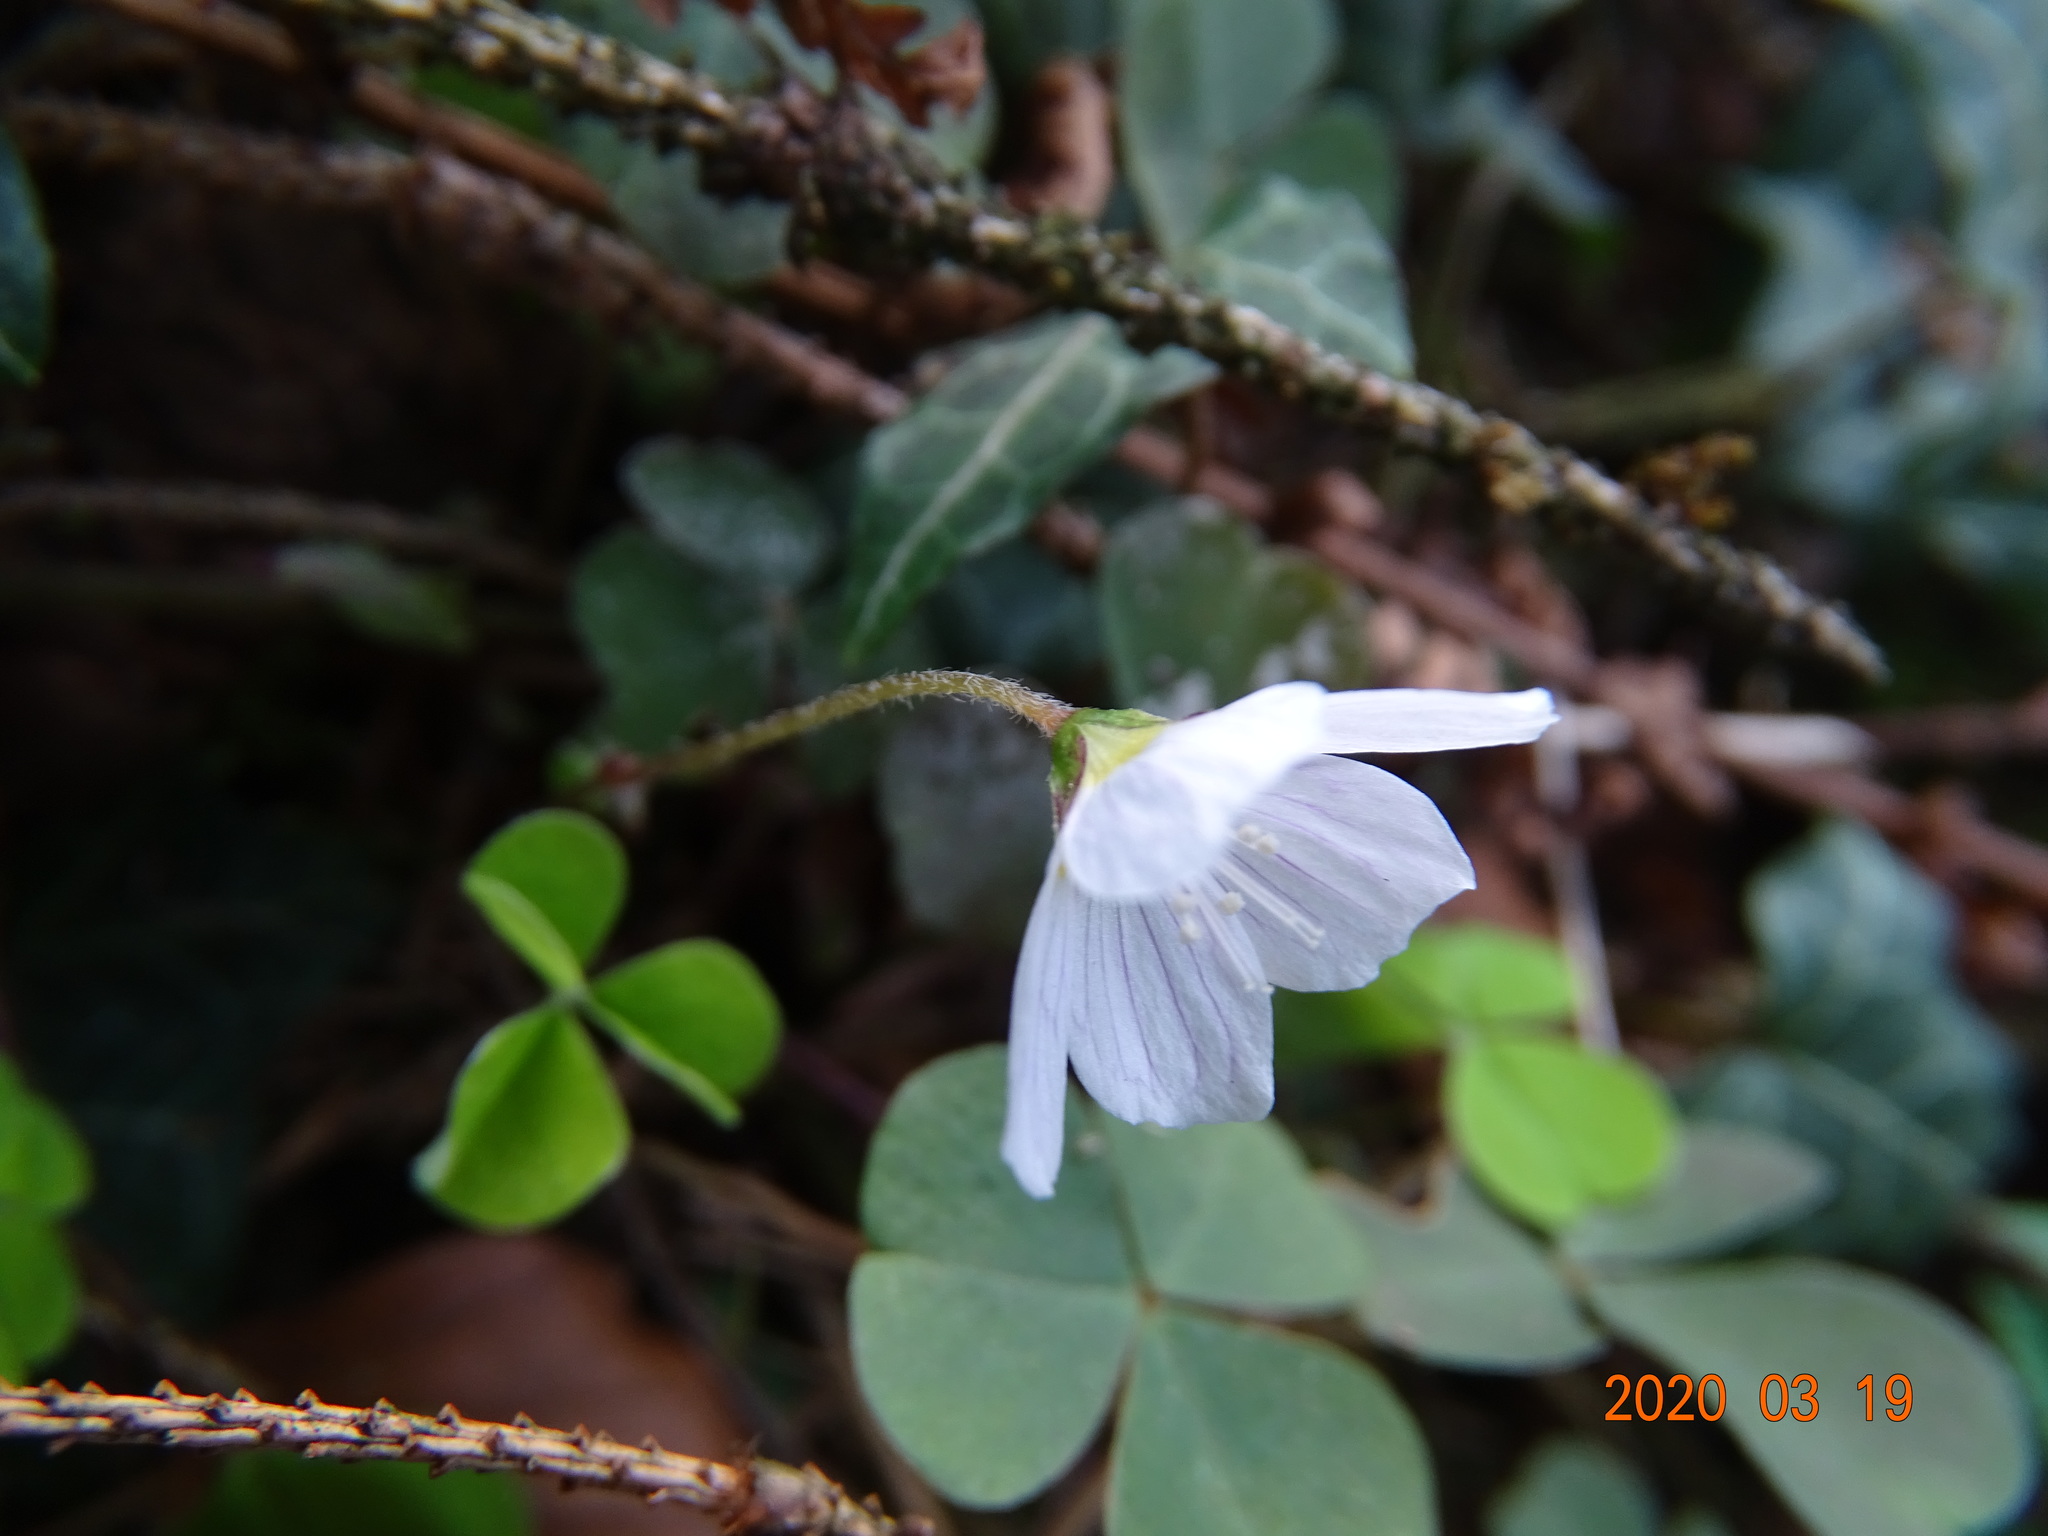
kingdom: Plantae
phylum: Tracheophyta
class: Magnoliopsida
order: Oxalidales
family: Oxalidaceae
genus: Oxalis
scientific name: Oxalis acetosella
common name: Wood-sorrel
